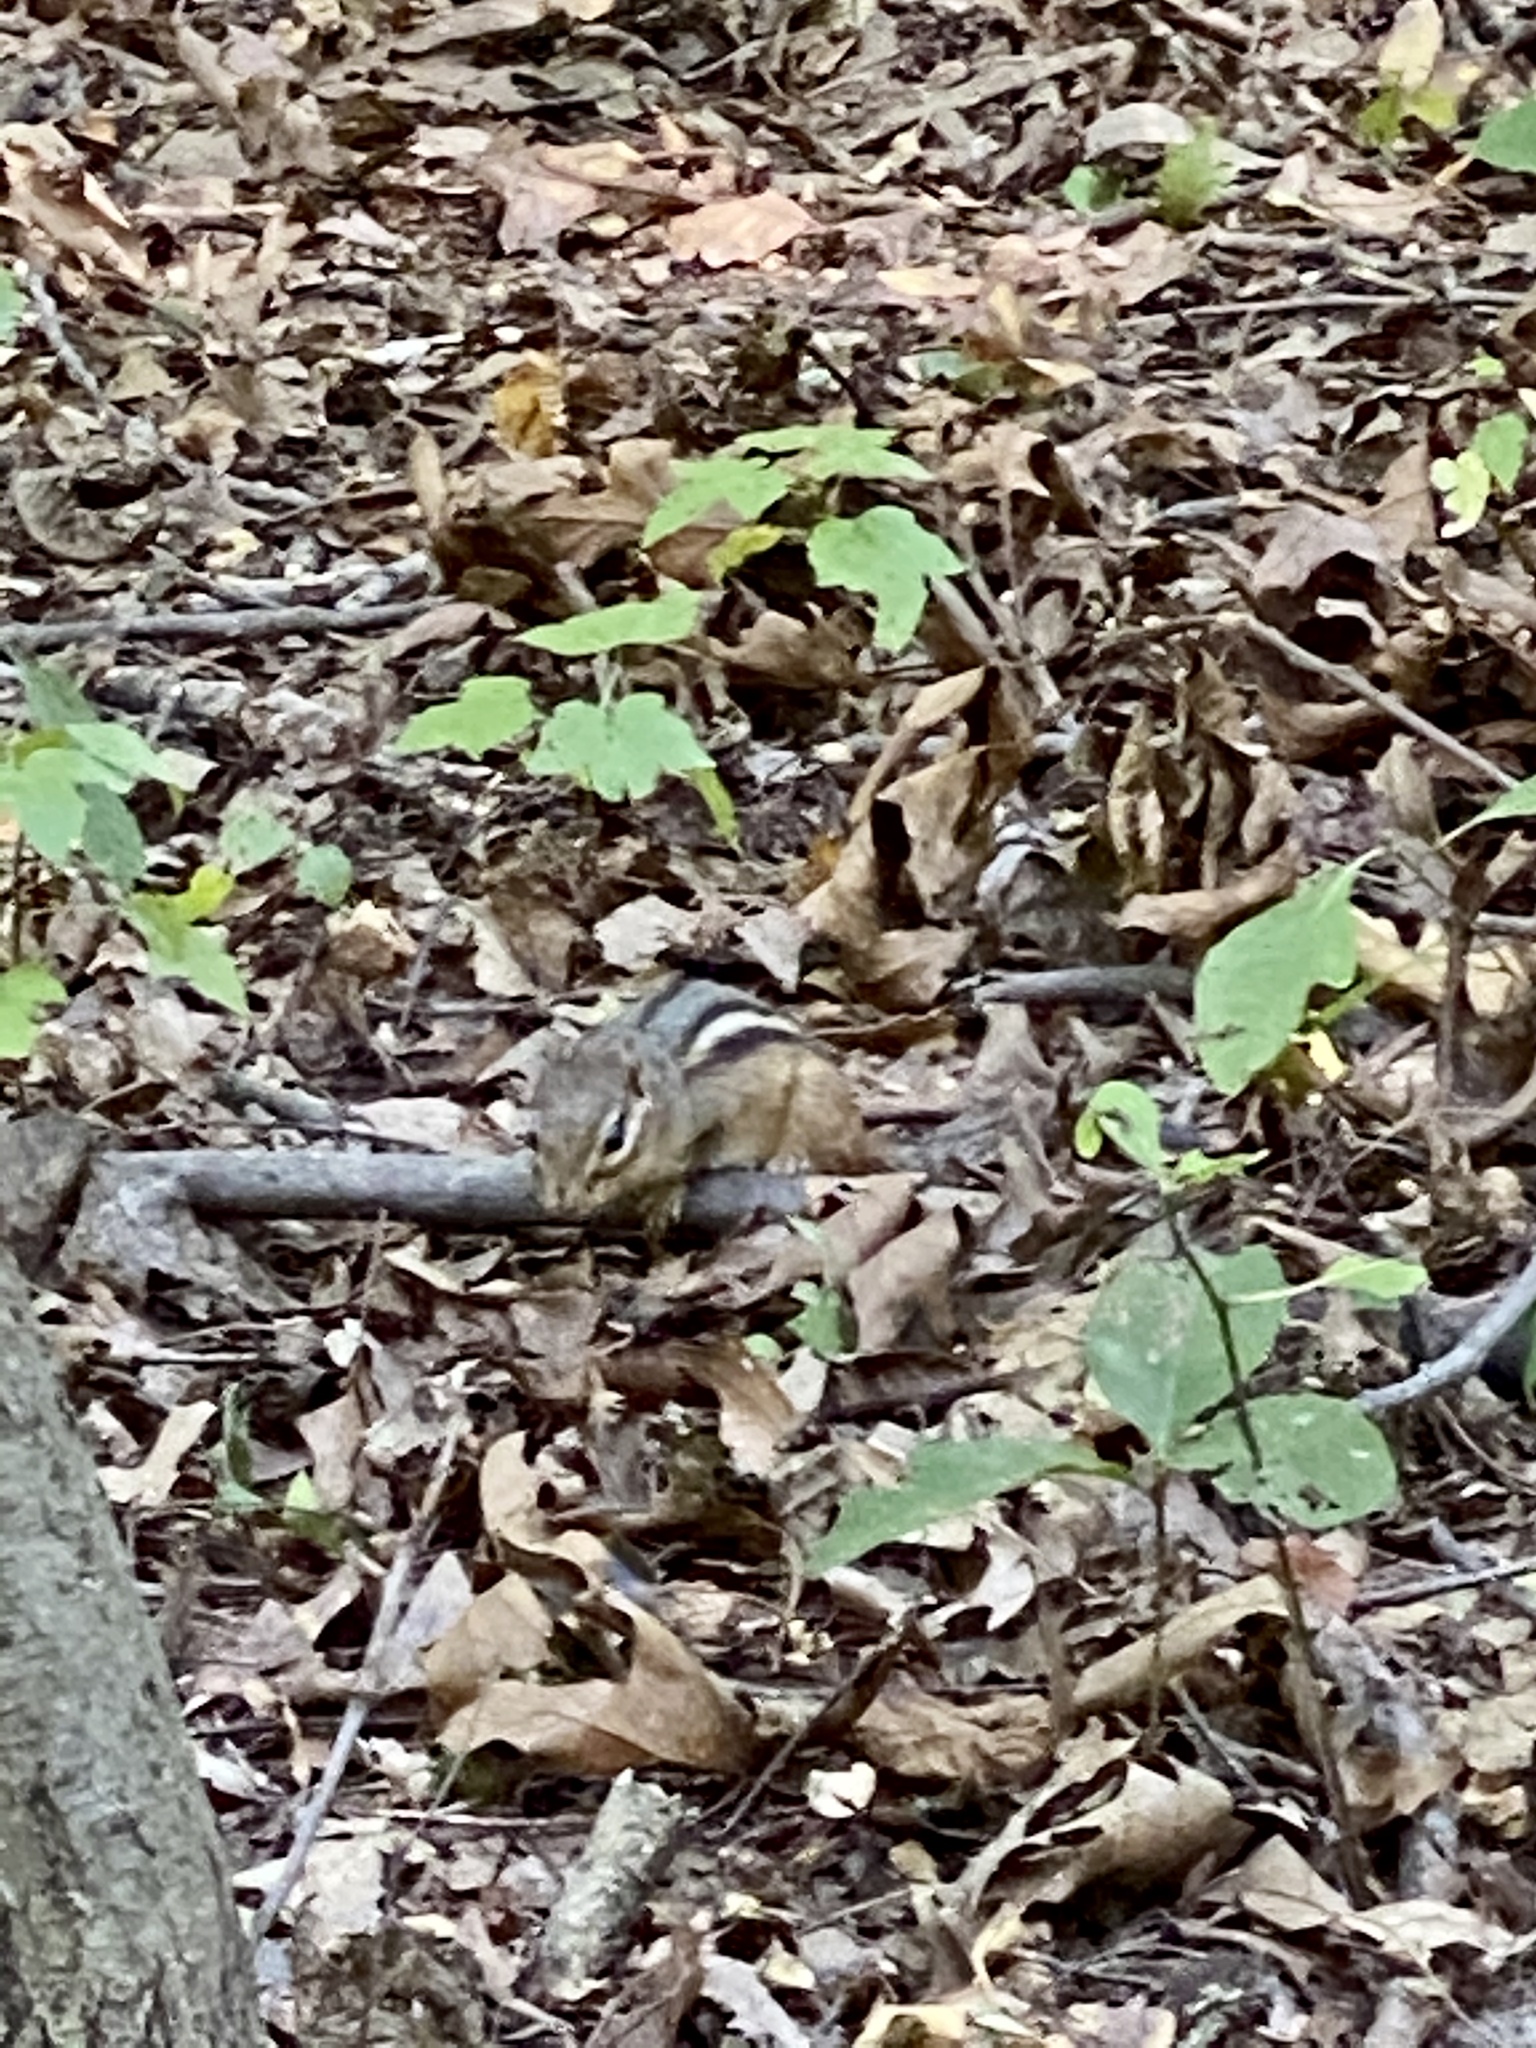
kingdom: Animalia
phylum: Chordata
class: Mammalia
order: Rodentia
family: Sciuridae
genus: Tamias
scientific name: Tamias striatus
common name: Eastern chipmunk
